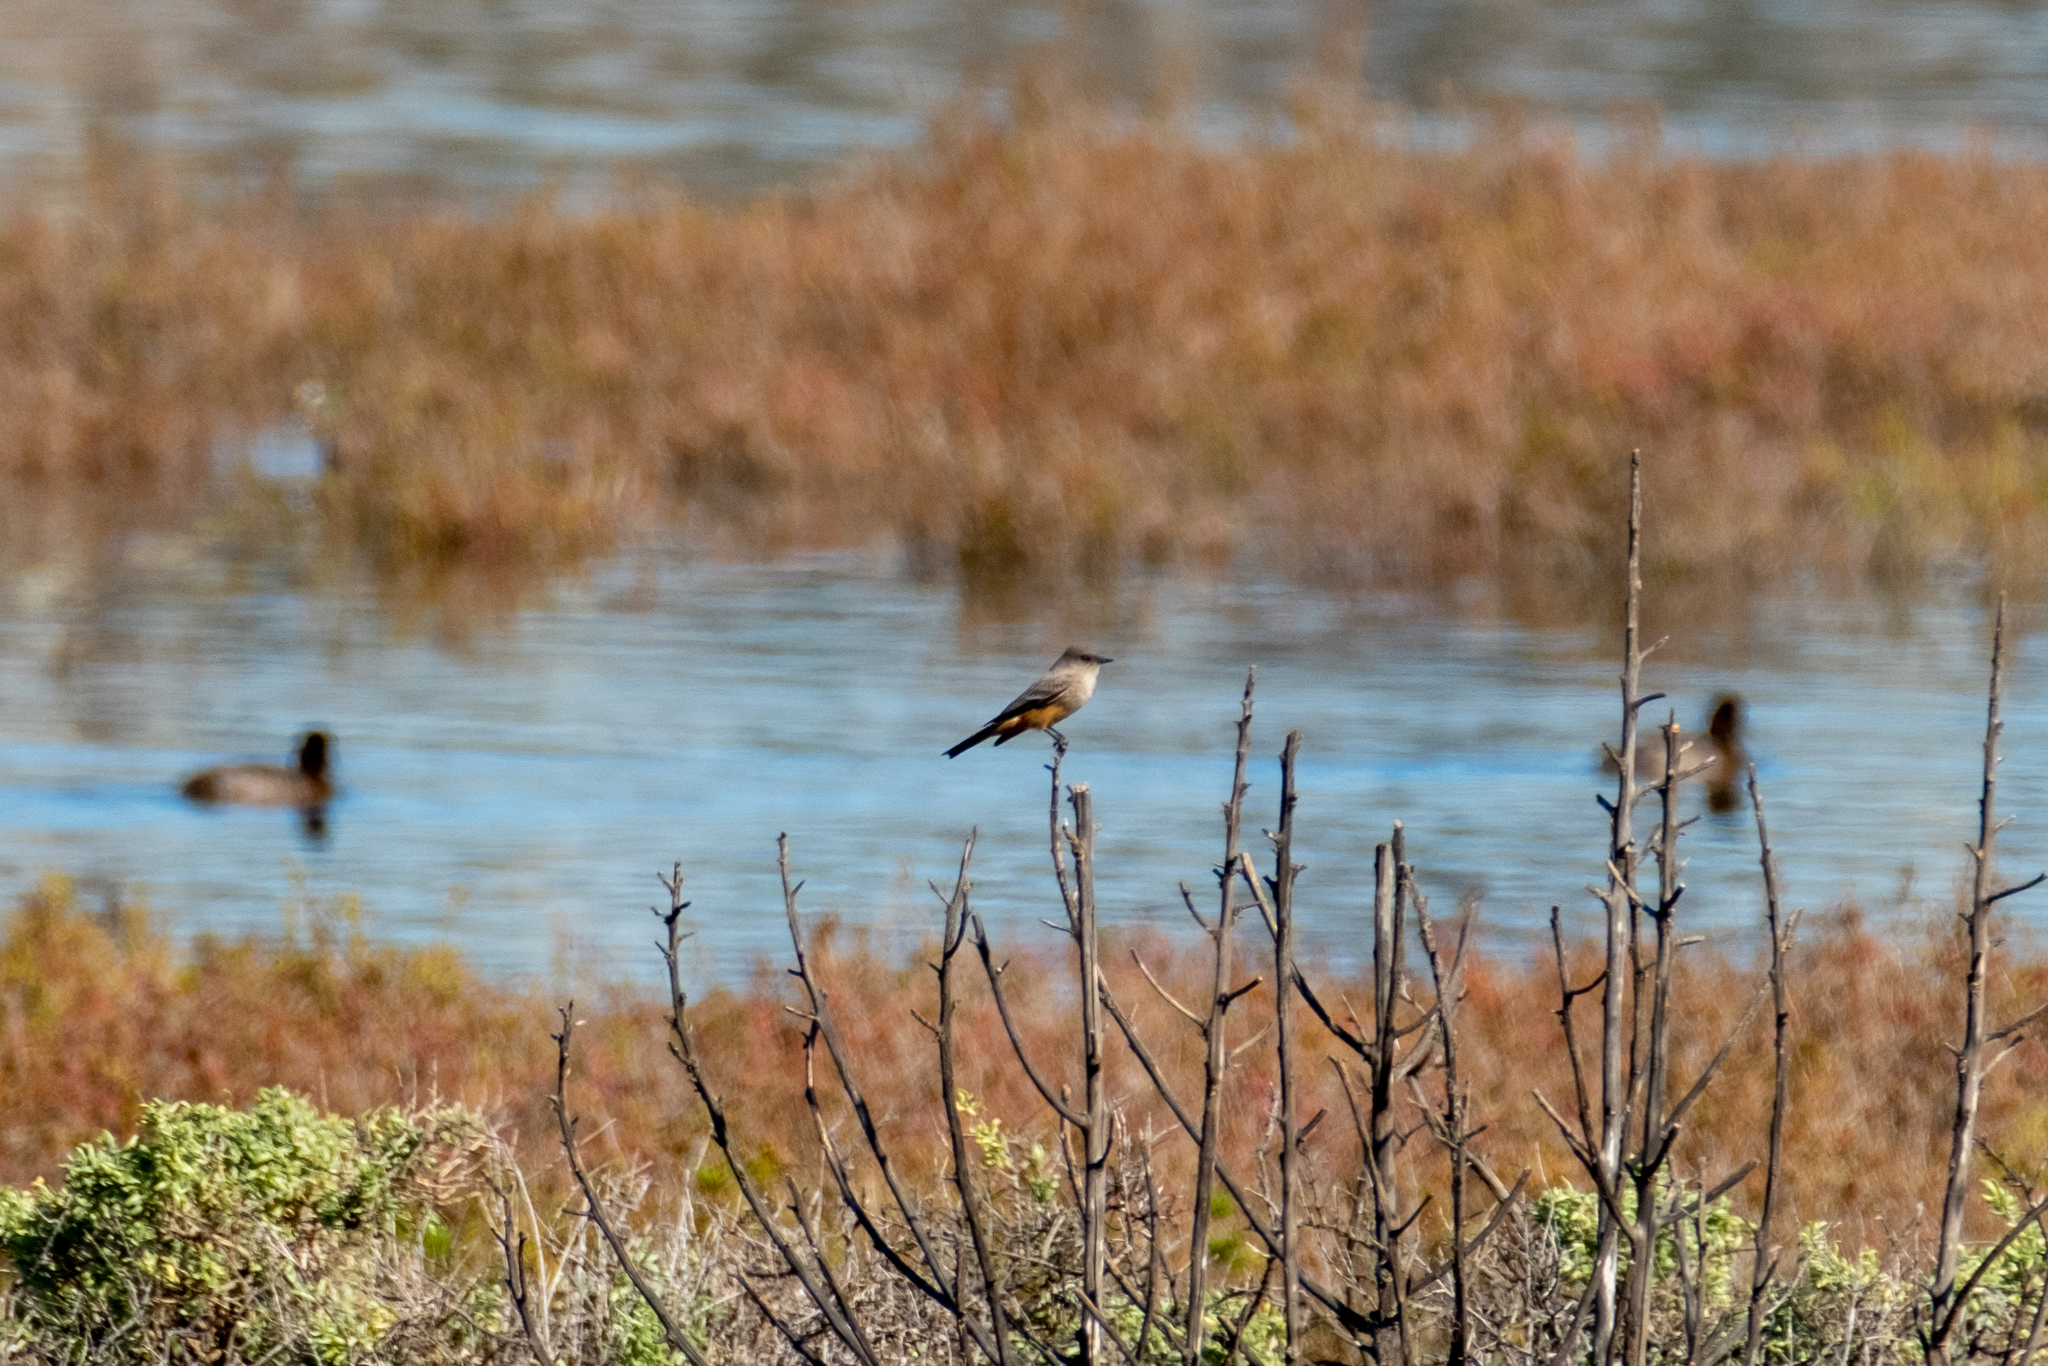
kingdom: Animalia
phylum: Chordata
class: Aves
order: Passeriformes
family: Tyrannidae
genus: Sayornis
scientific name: Sayornis saya
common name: Say's phoebe
